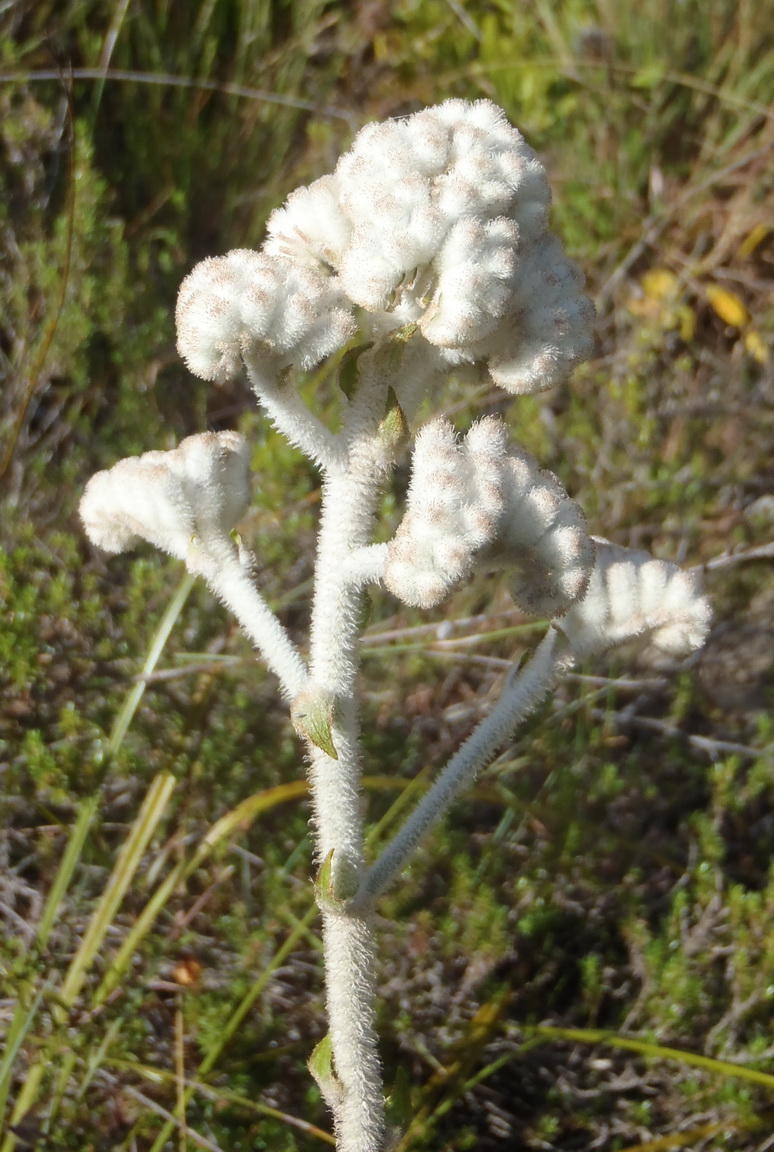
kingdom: Plantae
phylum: Tracheophyta
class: Liliopsida
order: Asparagales
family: Lanariaceae
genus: Lanaria
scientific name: Lanaria lanata
